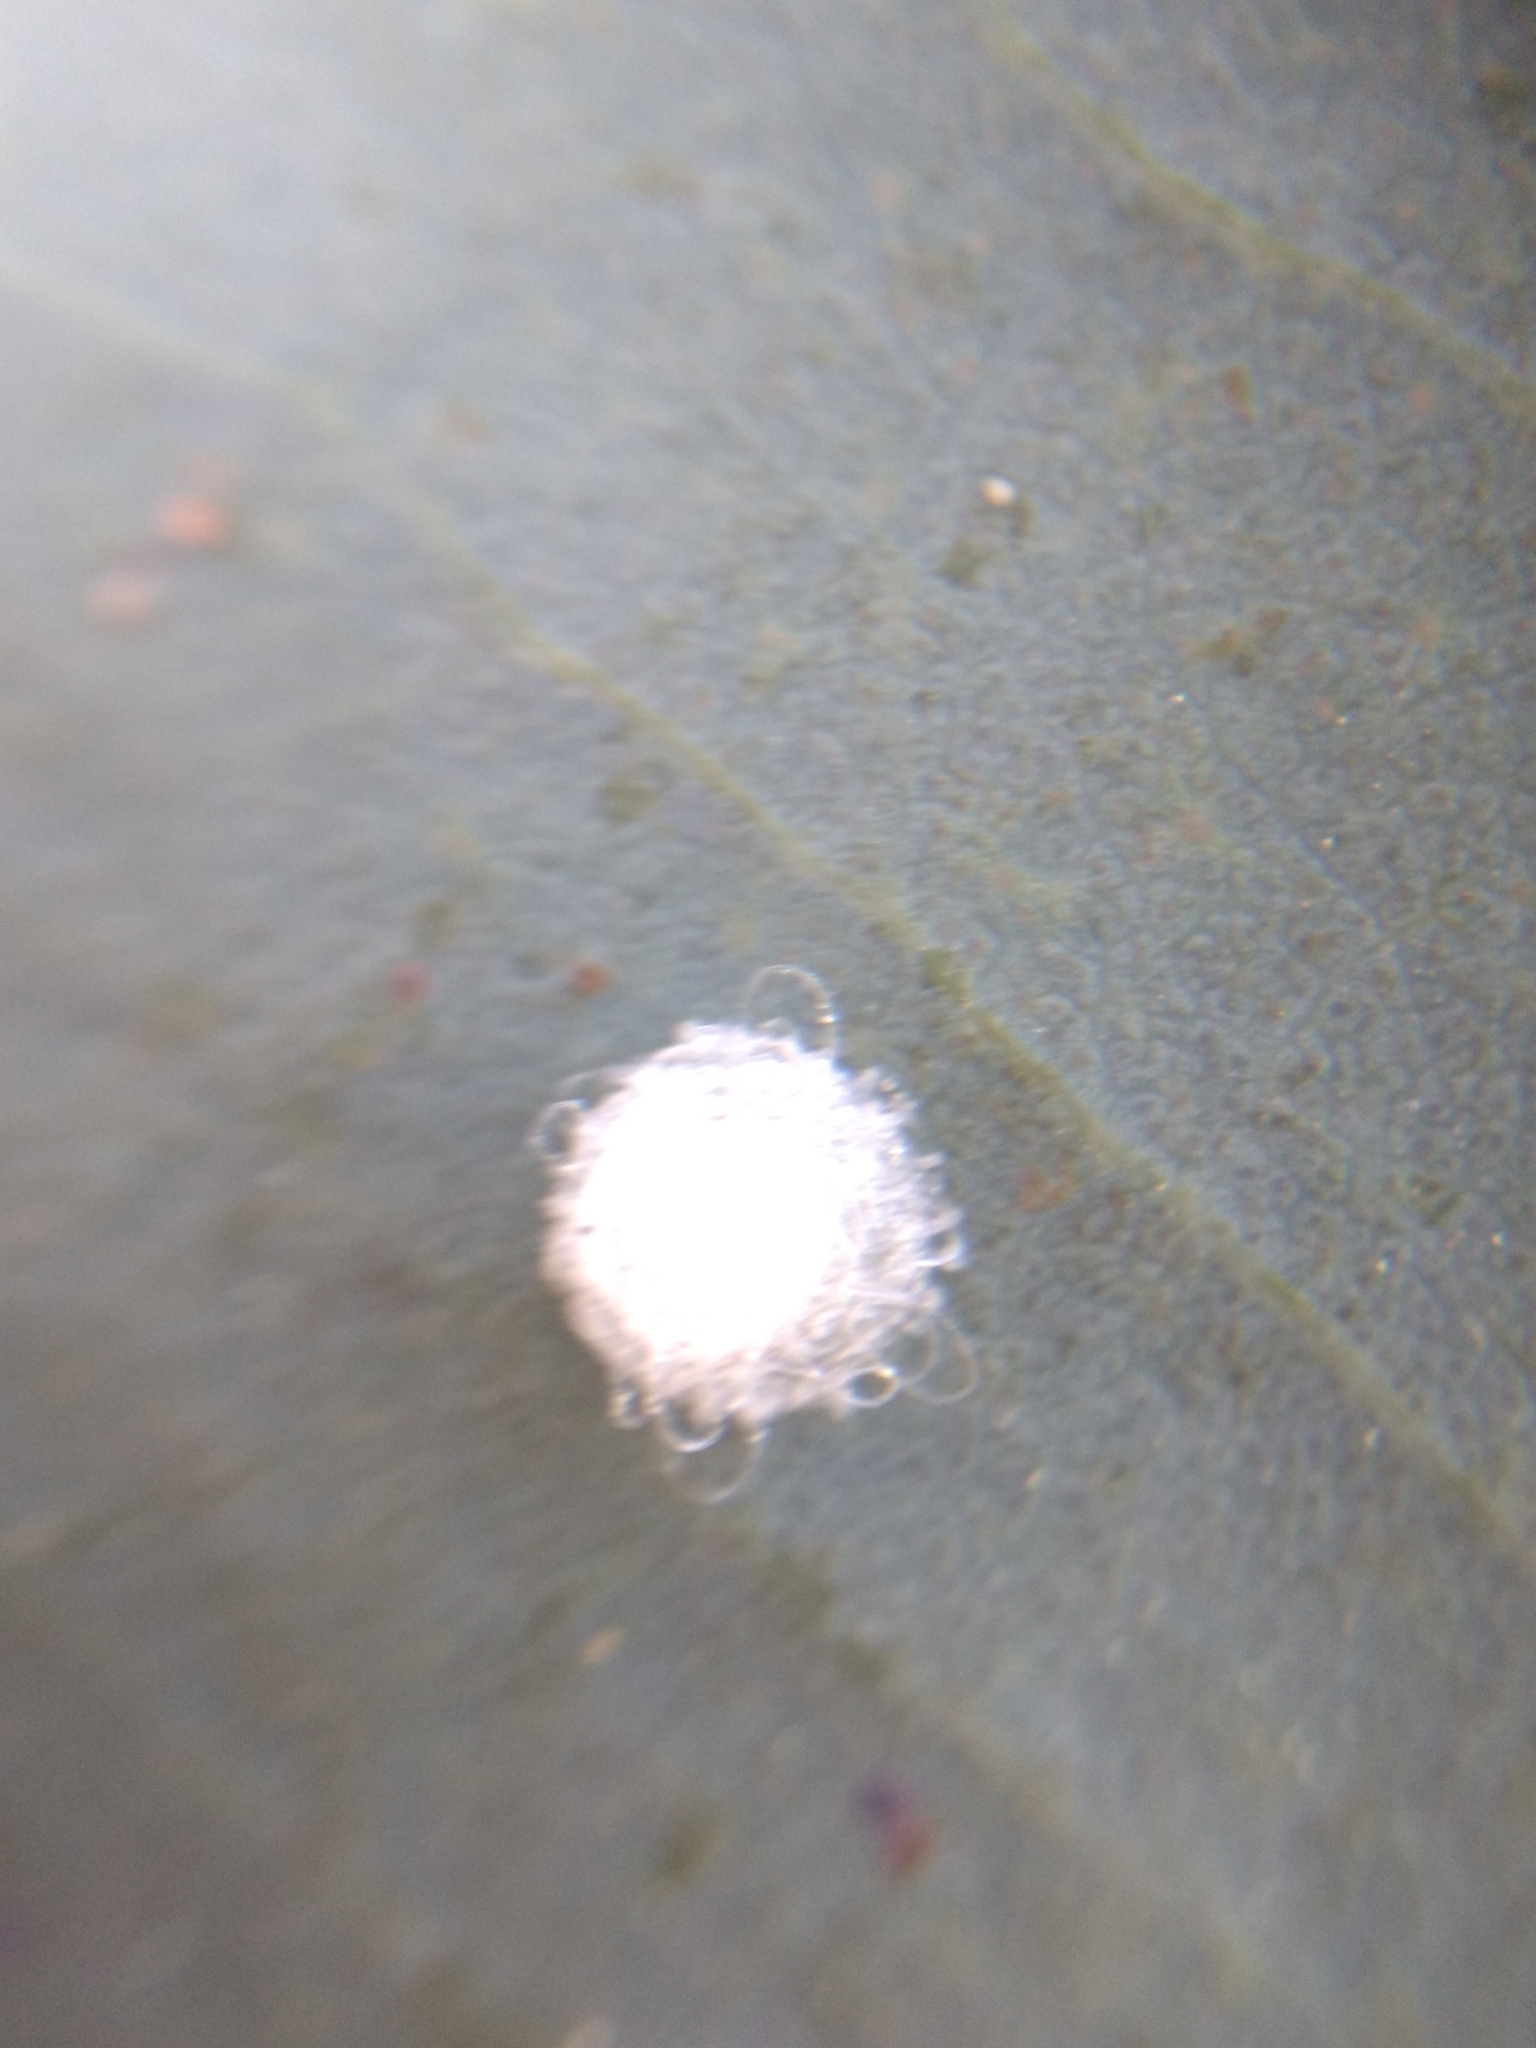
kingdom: Animalia
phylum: Arthropoda
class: Insecta
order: Hemiptera
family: Aphalaridae
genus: Glycaspis
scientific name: Glycaspis brimblecombei
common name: Red gum lerp psyllid
